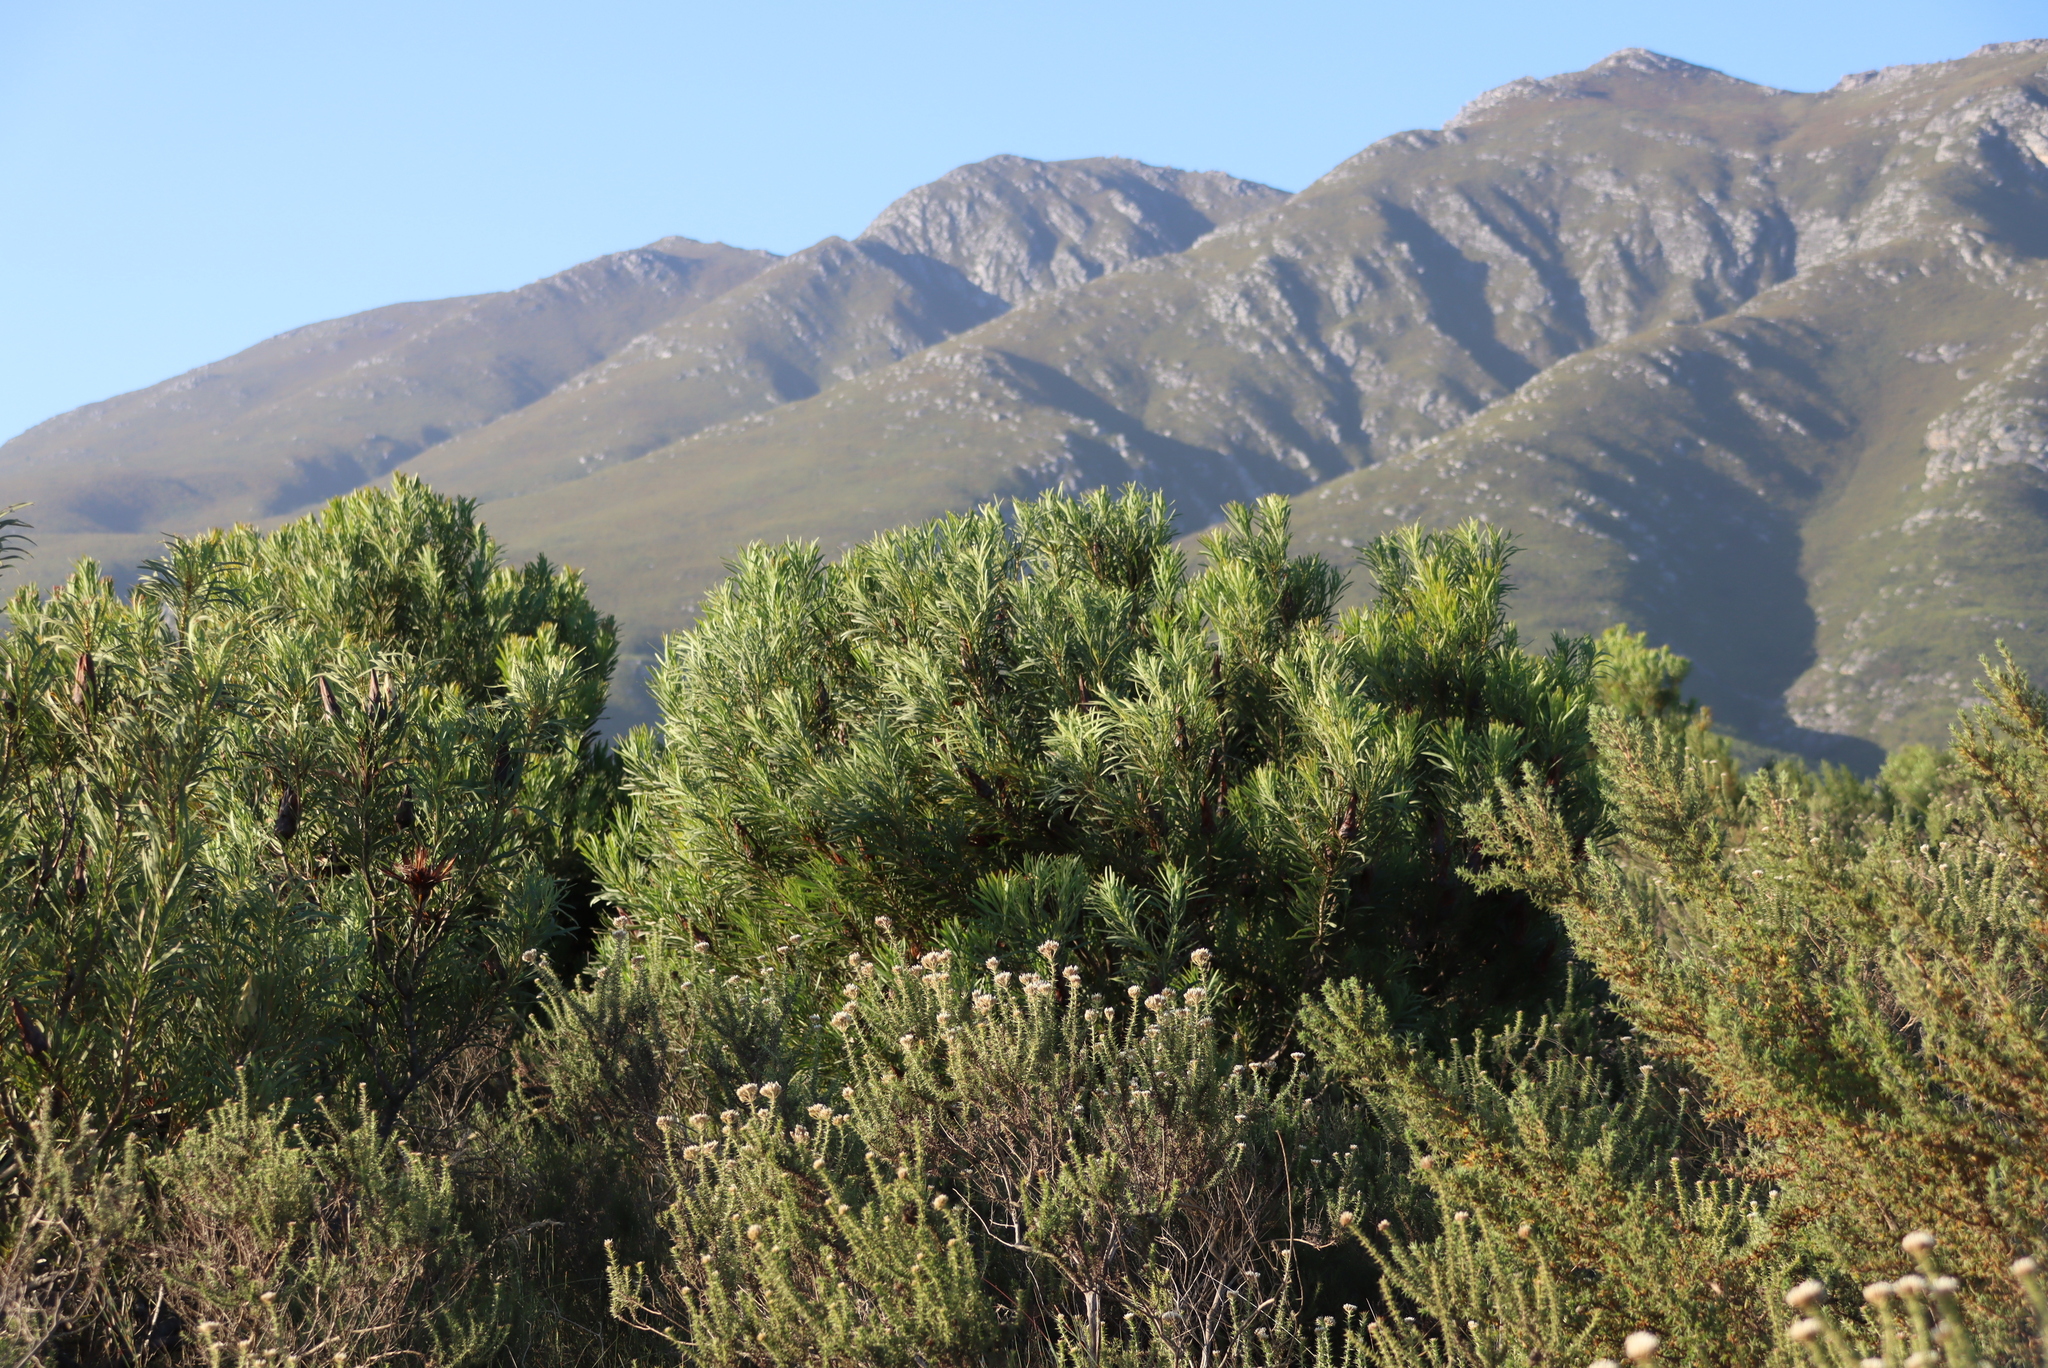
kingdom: Plantae
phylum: Tracheophyta
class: Magnoliopsida
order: Proteales
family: Proteaceae
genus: Protea
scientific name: Protea repens
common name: Sugarbush
